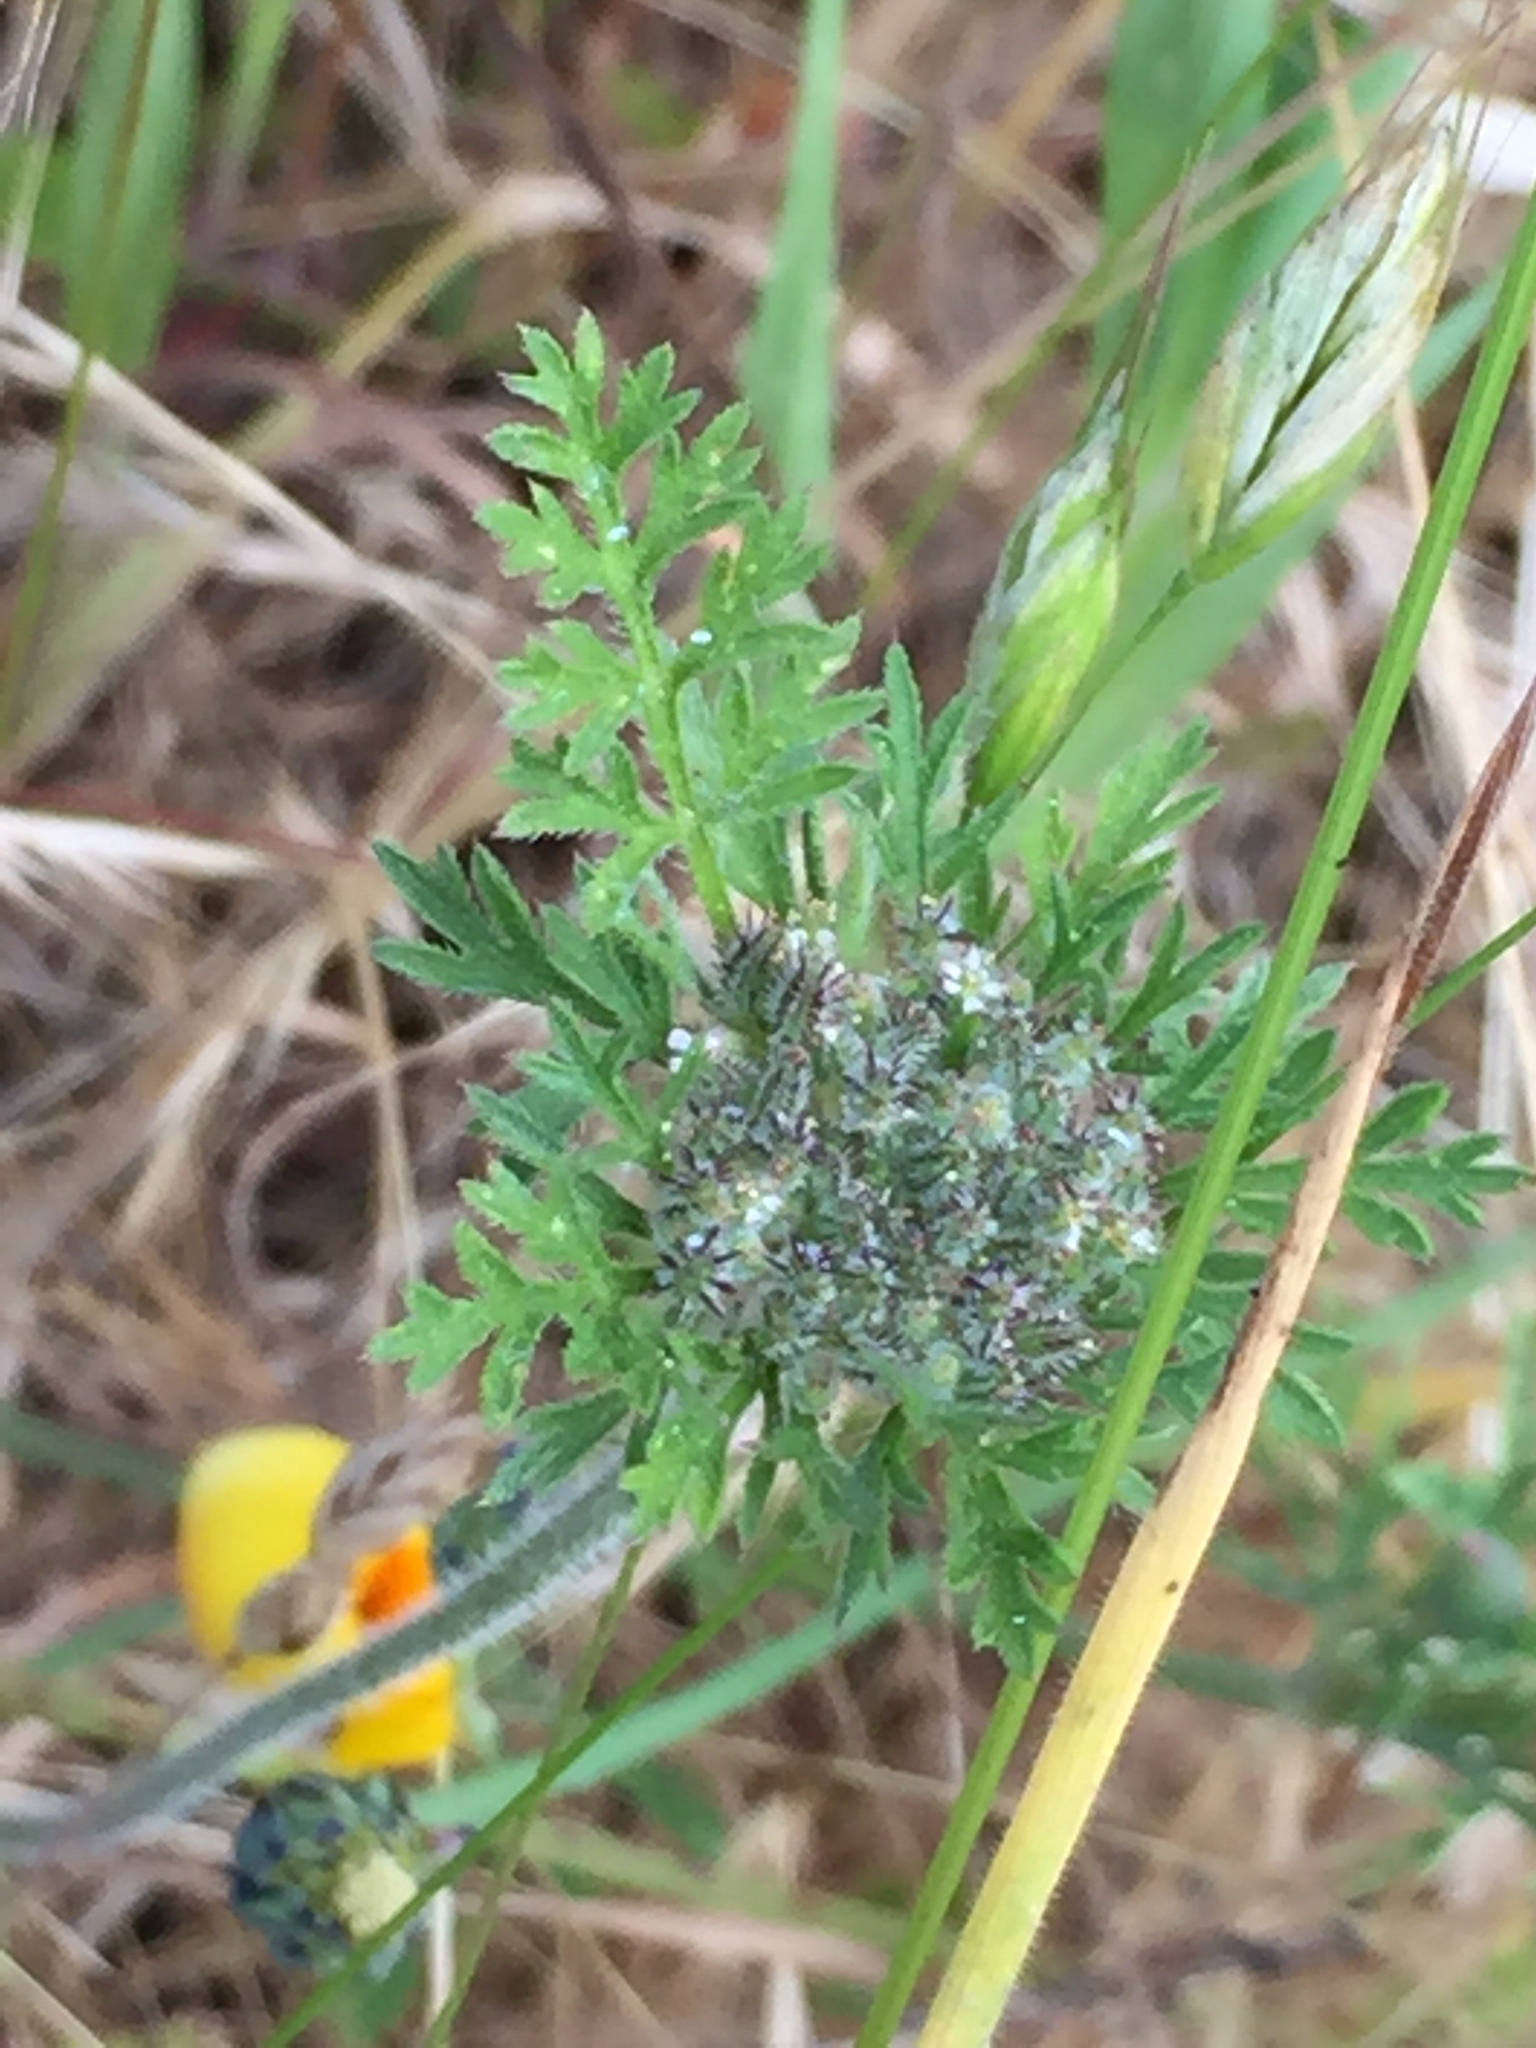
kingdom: Plantae
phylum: Tracheophyta
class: Magnoliopsida
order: Apiales
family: Apiaceae
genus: Daucus
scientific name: Daucus pusillus
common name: Southwest wild carrot
